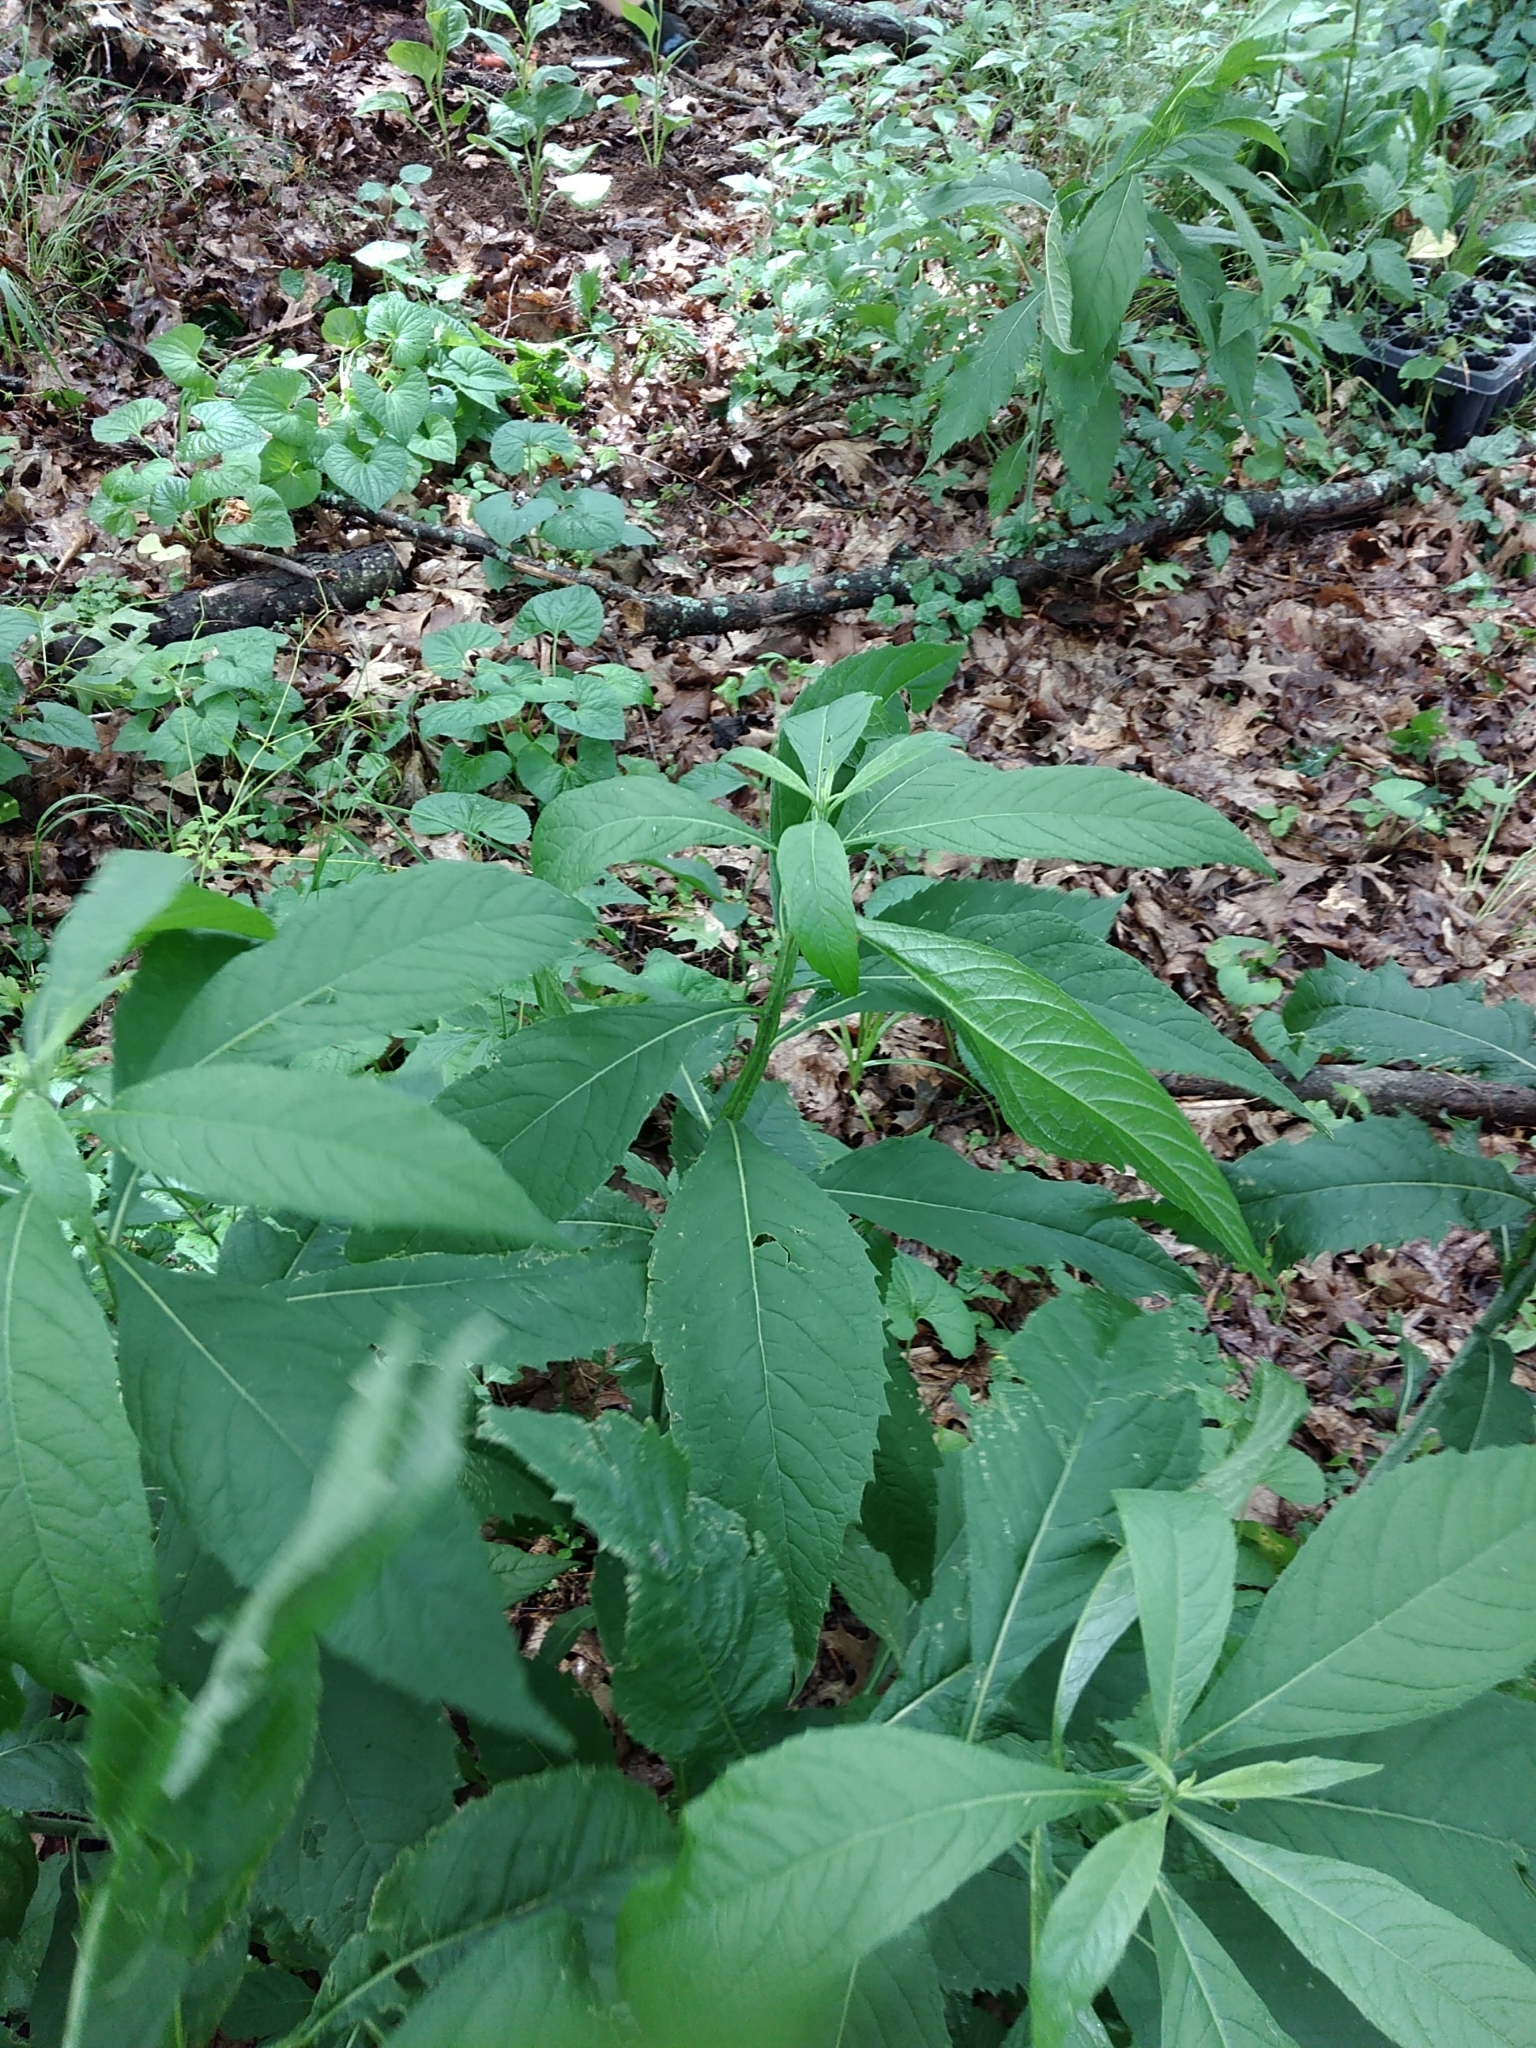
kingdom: Plantae
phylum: Tracheophyta
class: Magnoliopsida
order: Asterales
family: Asteraceae
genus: Verbesina
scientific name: Verbesina alternifolia
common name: Wingstem
